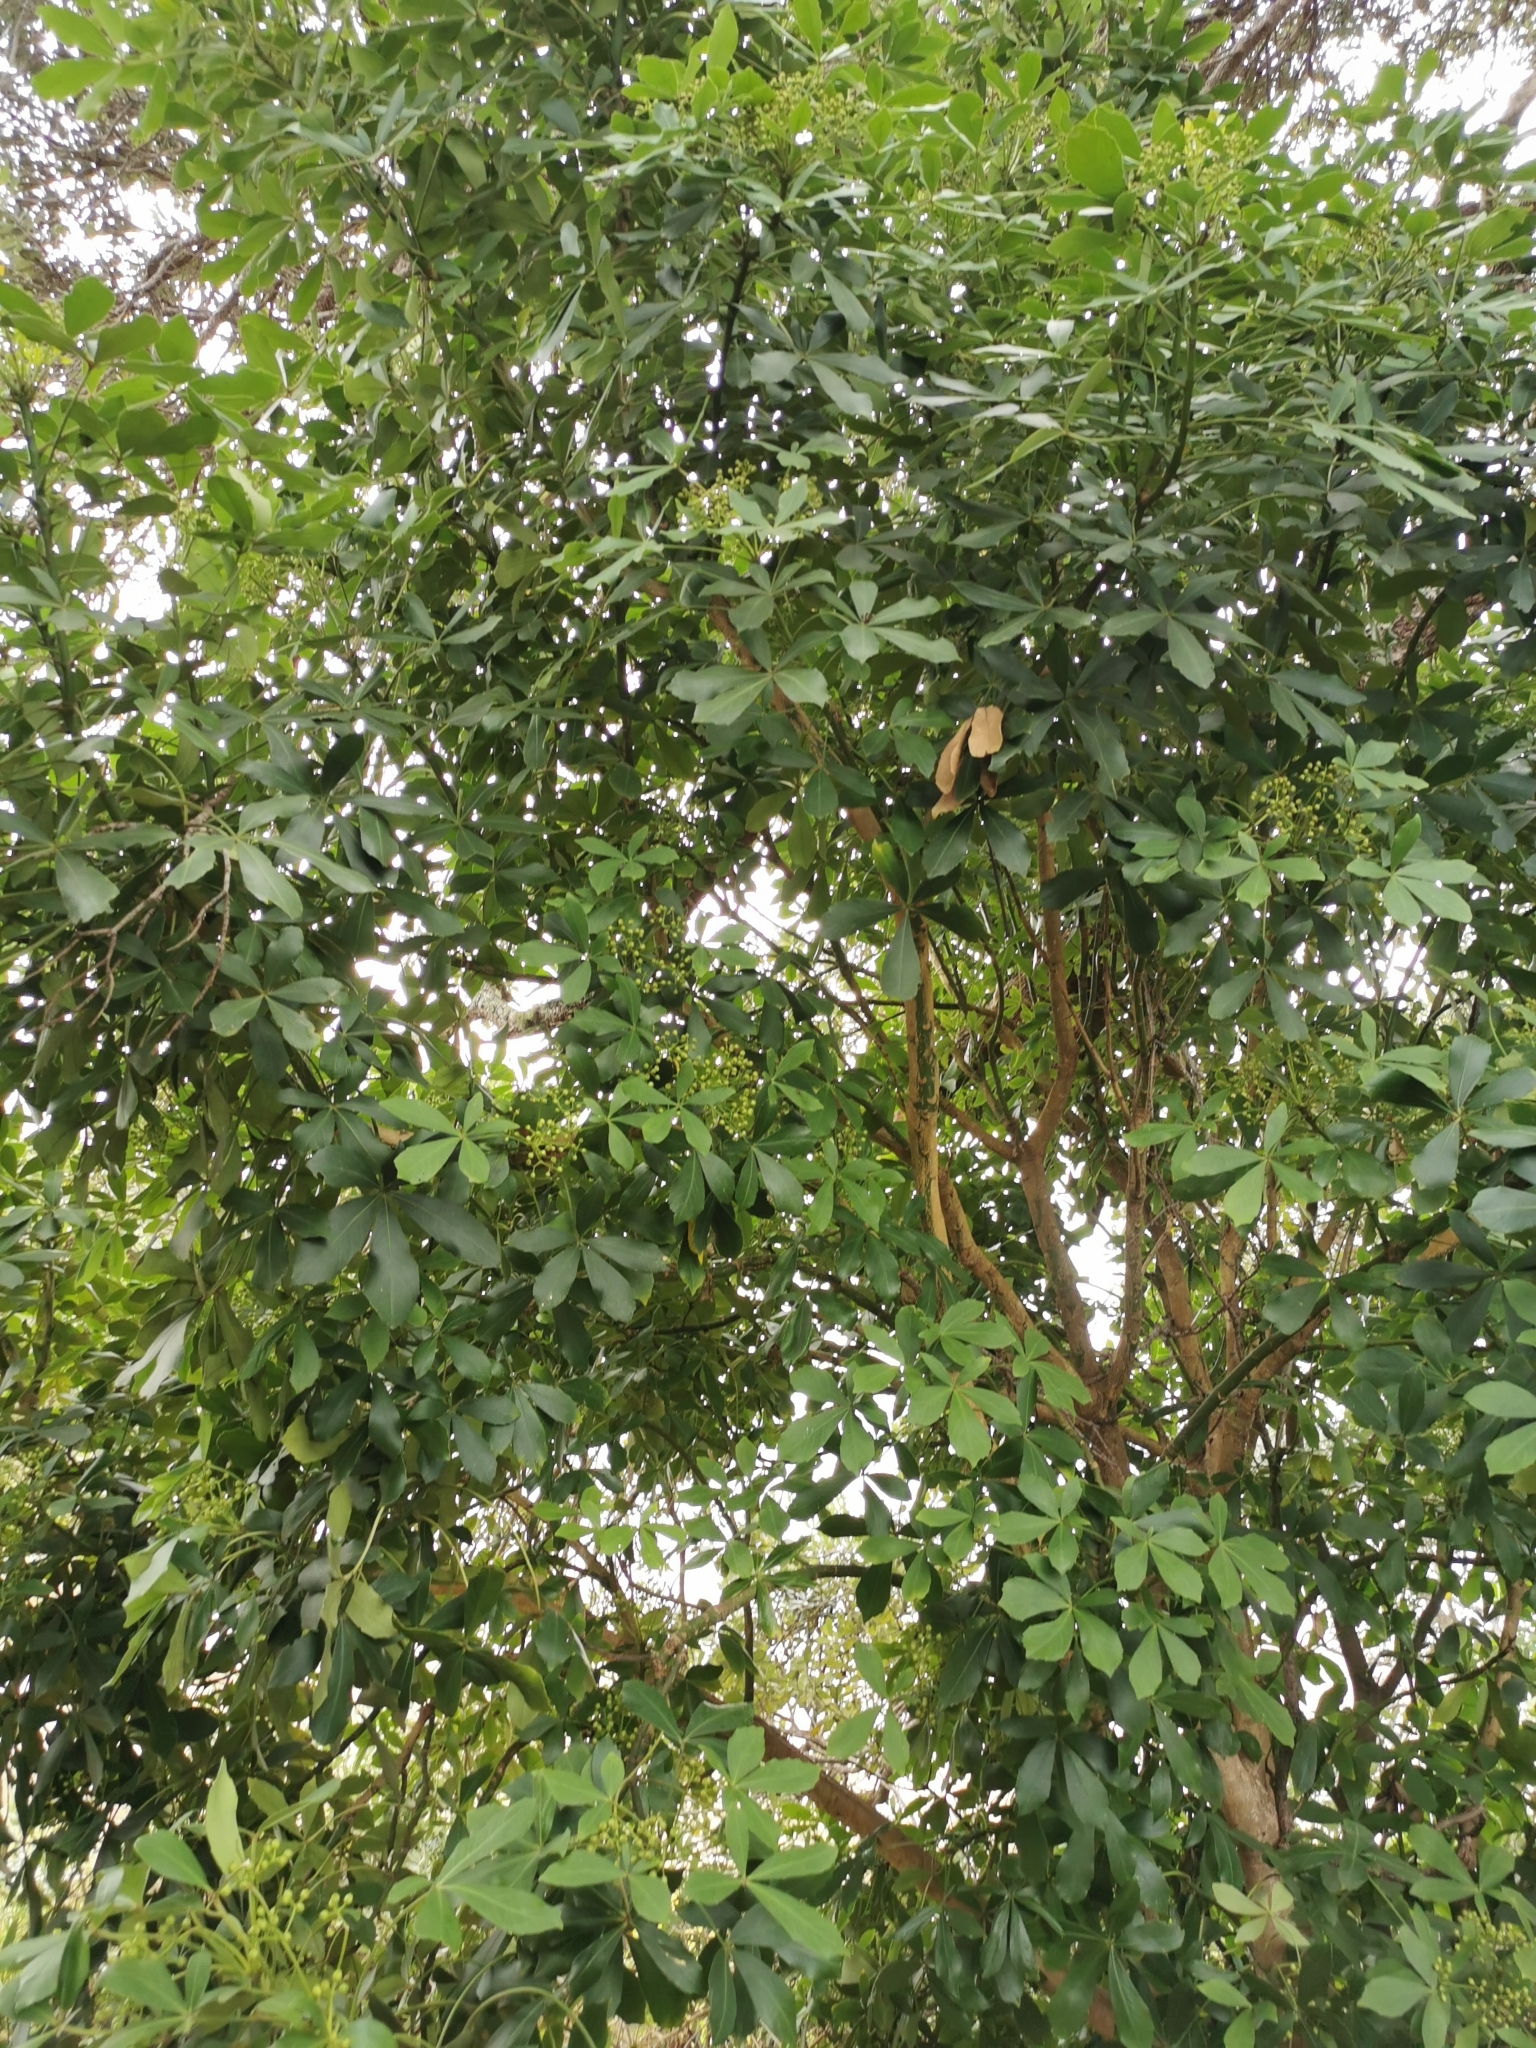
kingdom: Plantae
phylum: Tracheophyta
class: Magnoliopsida
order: Apiales
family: Araliaceae
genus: Pseudopanax
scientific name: Pseudopanax lessonii
